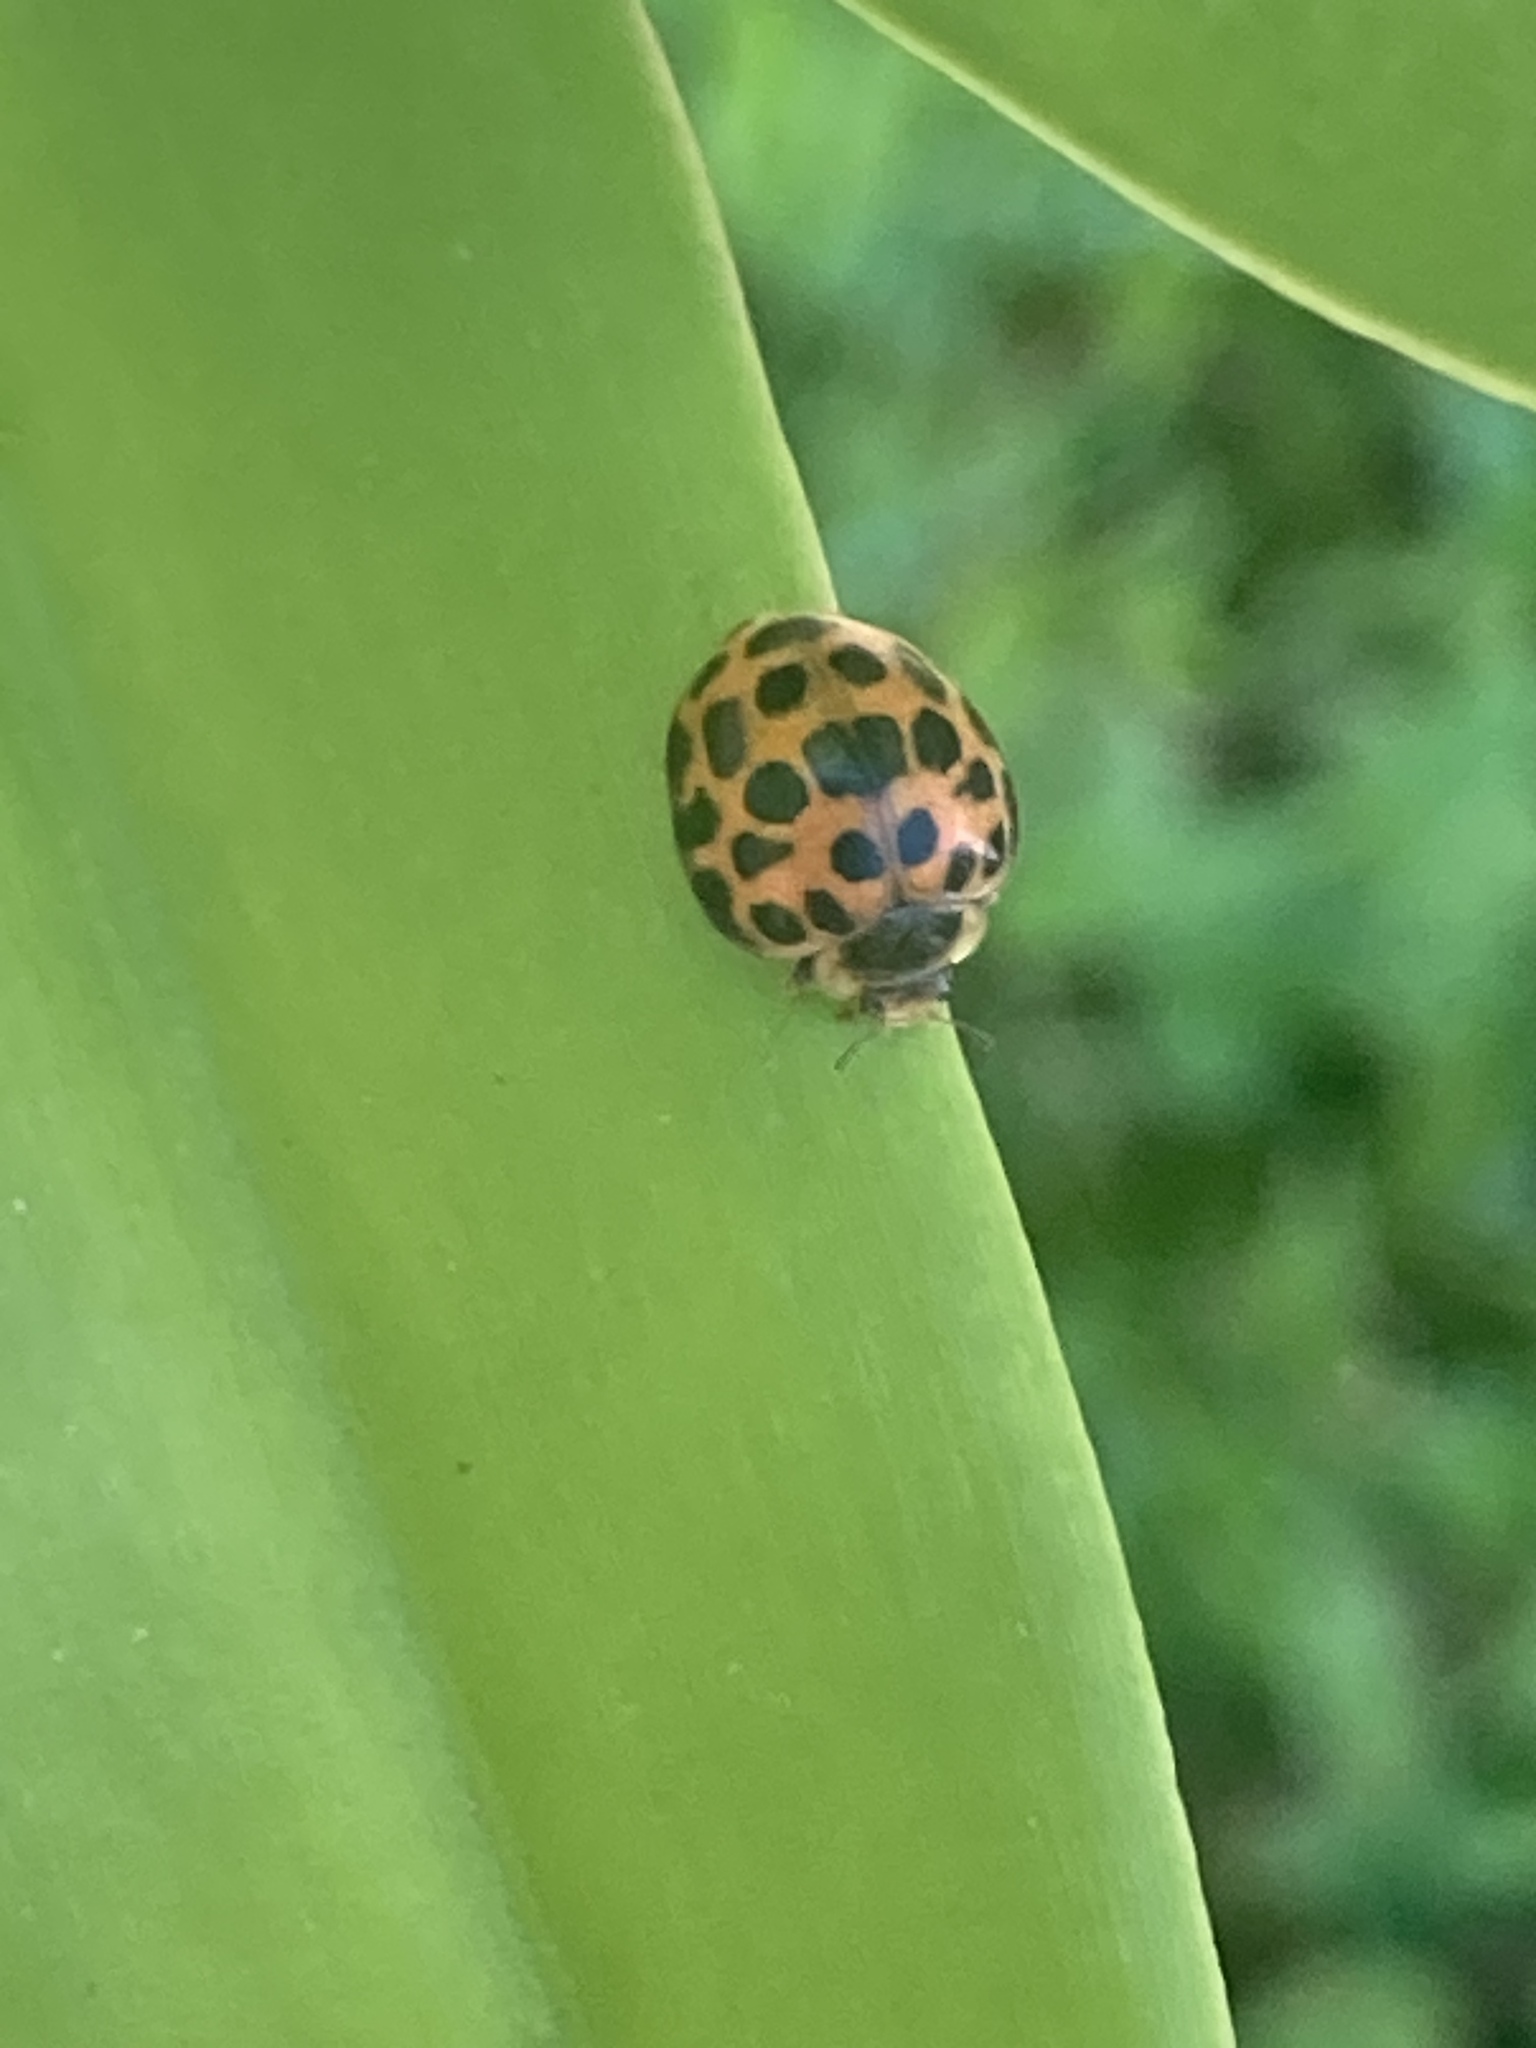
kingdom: Animalia
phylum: Arthropoda
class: Insecta
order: Coleoptera
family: Coccinellidae
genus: Henosepilachna
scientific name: Henosepilachna vigintisexpunctata
